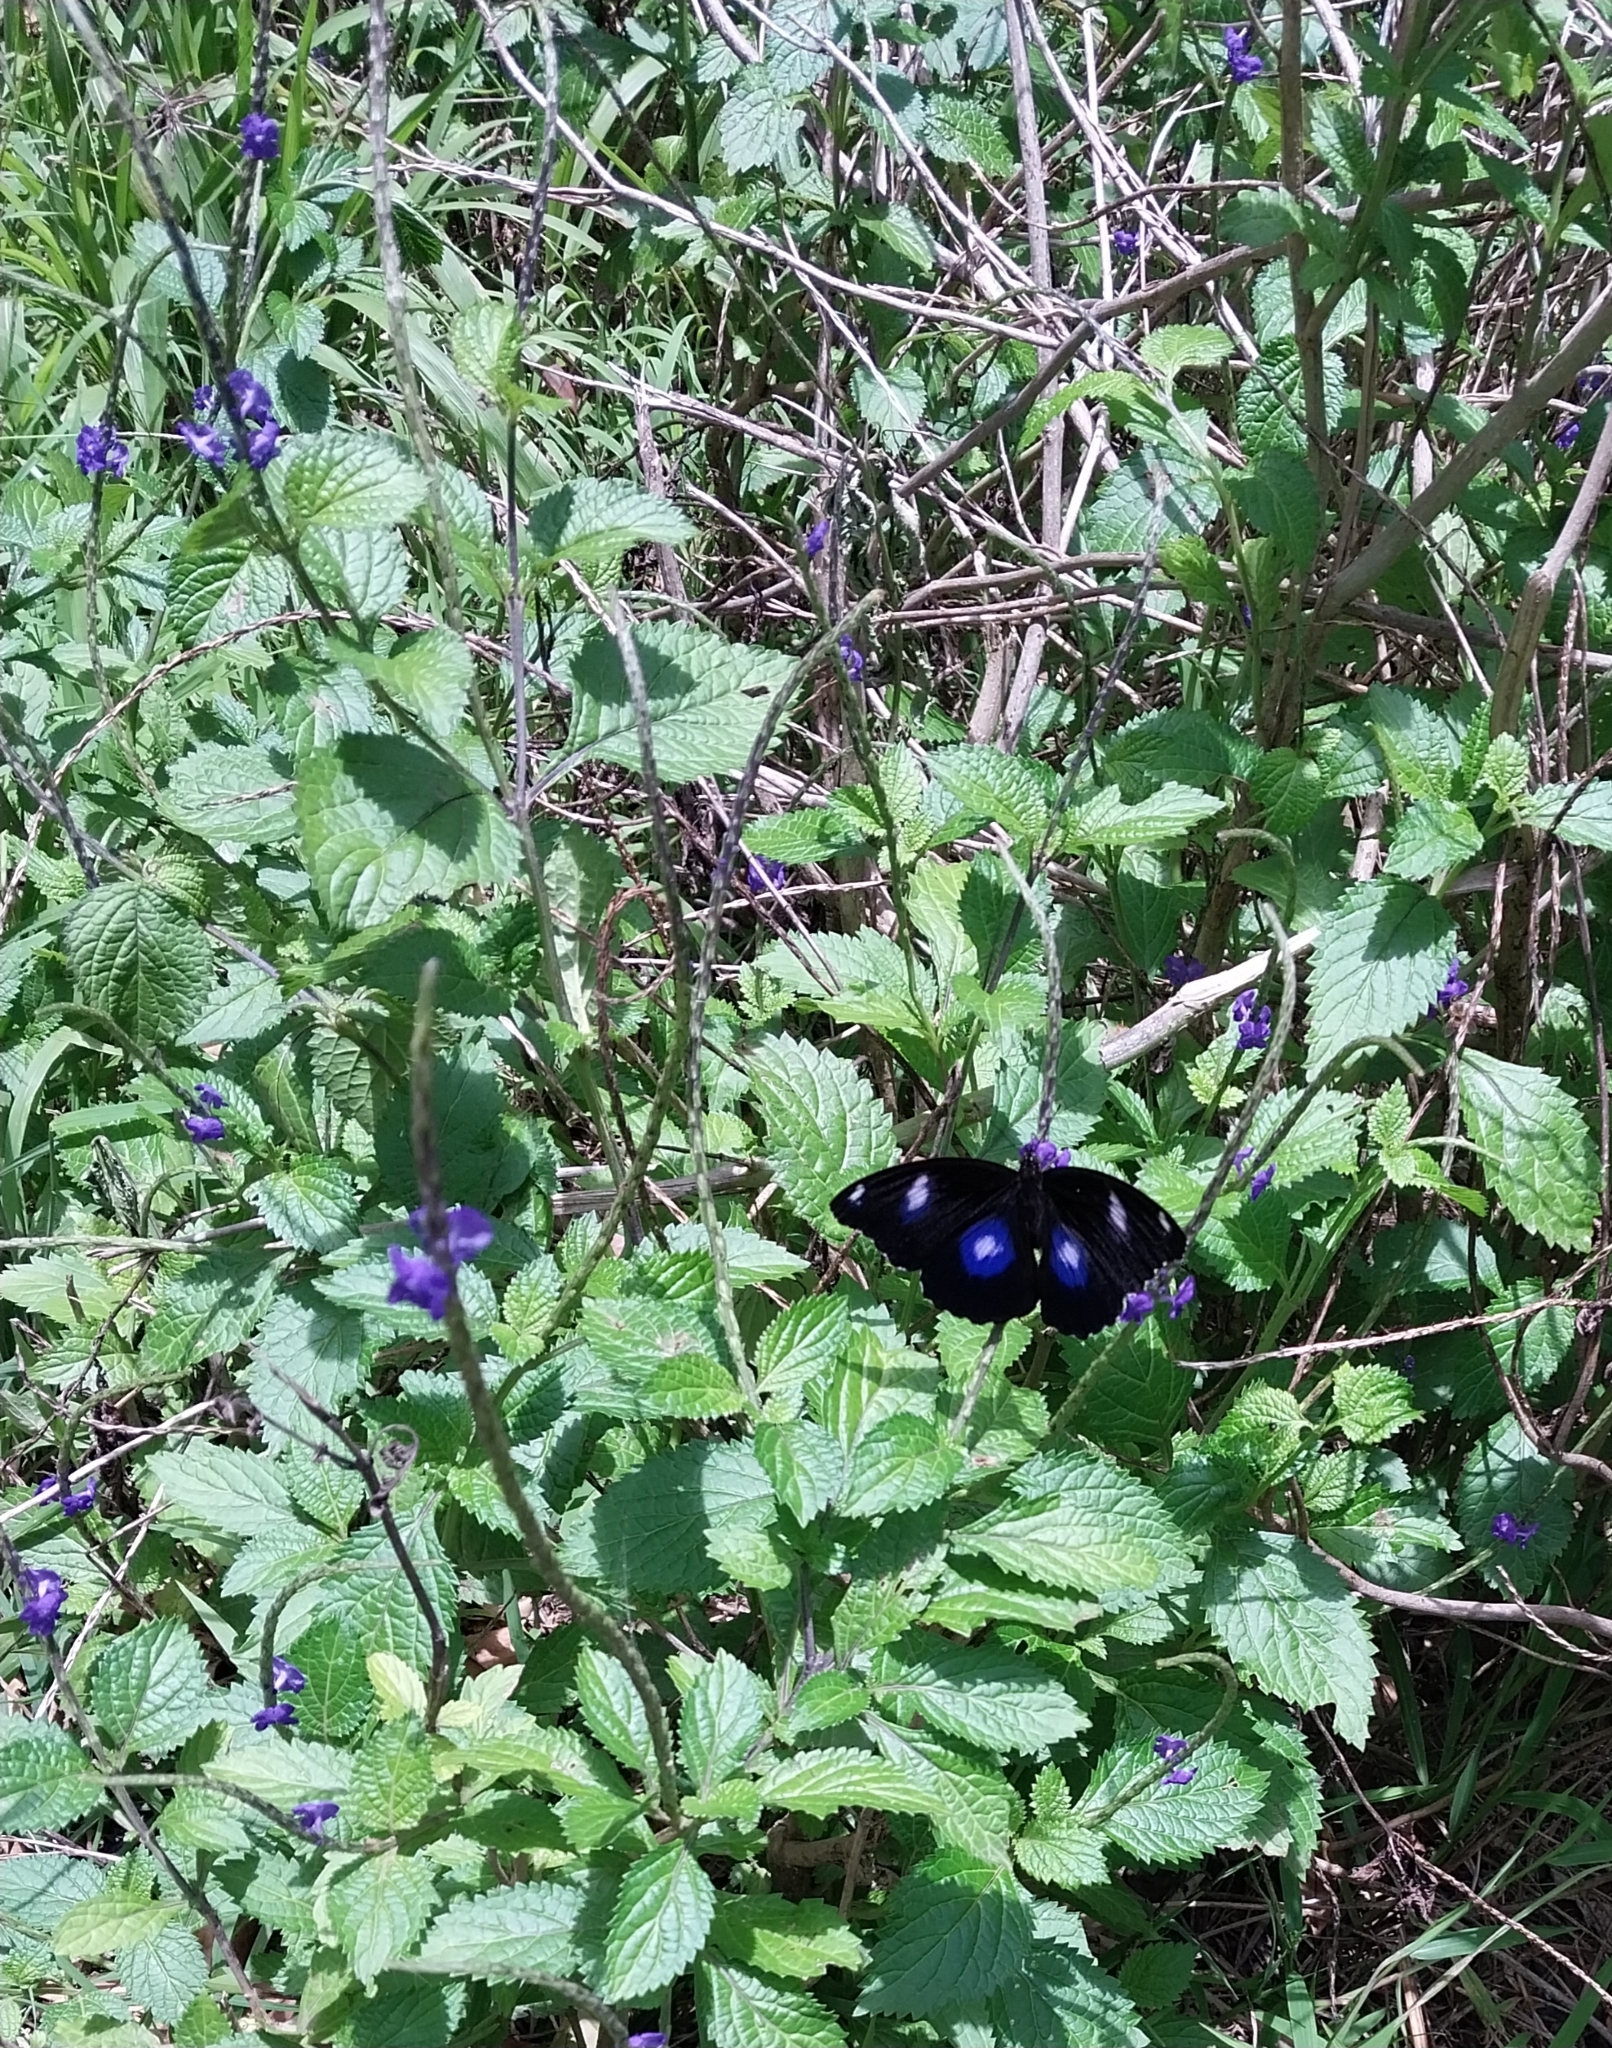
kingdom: Animalia
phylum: Arthropoda
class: Insecta
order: Lepidoptera
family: Nymphalidae
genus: Hypolimnas
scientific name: Hypolimnas bolina
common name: Great eggfly
